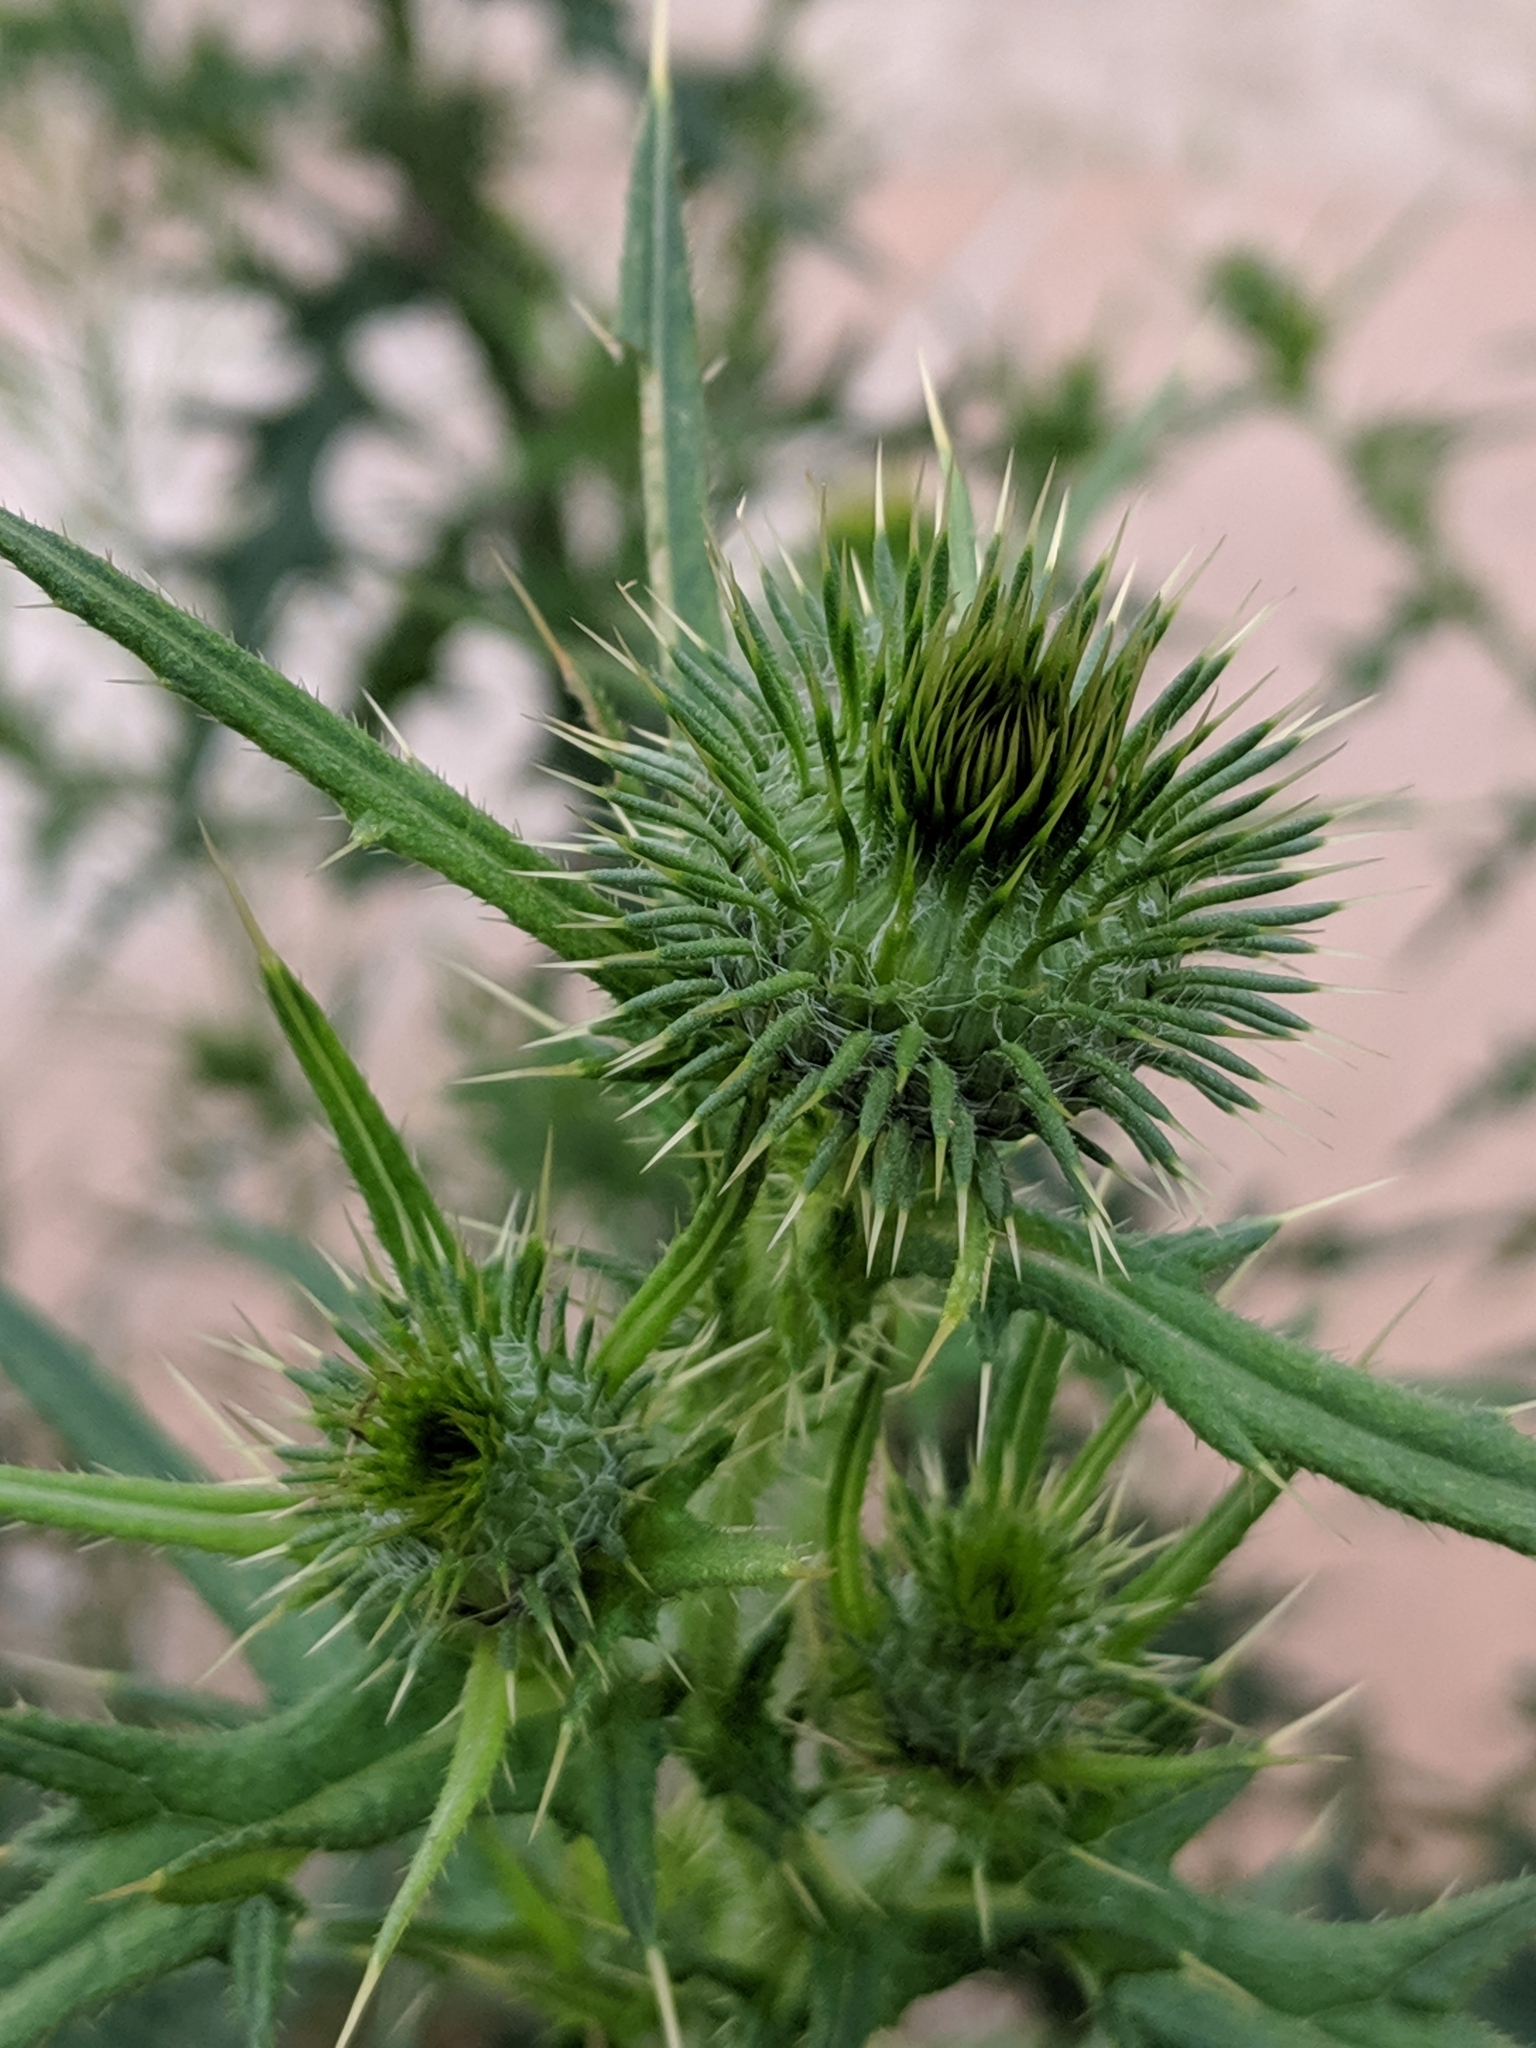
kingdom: Plantae
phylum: Tracheophyta
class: Magnoliopsida
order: Asterales
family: Asteraceae
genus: Cirsium
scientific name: Cirsium vulgare
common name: Bull thistle
